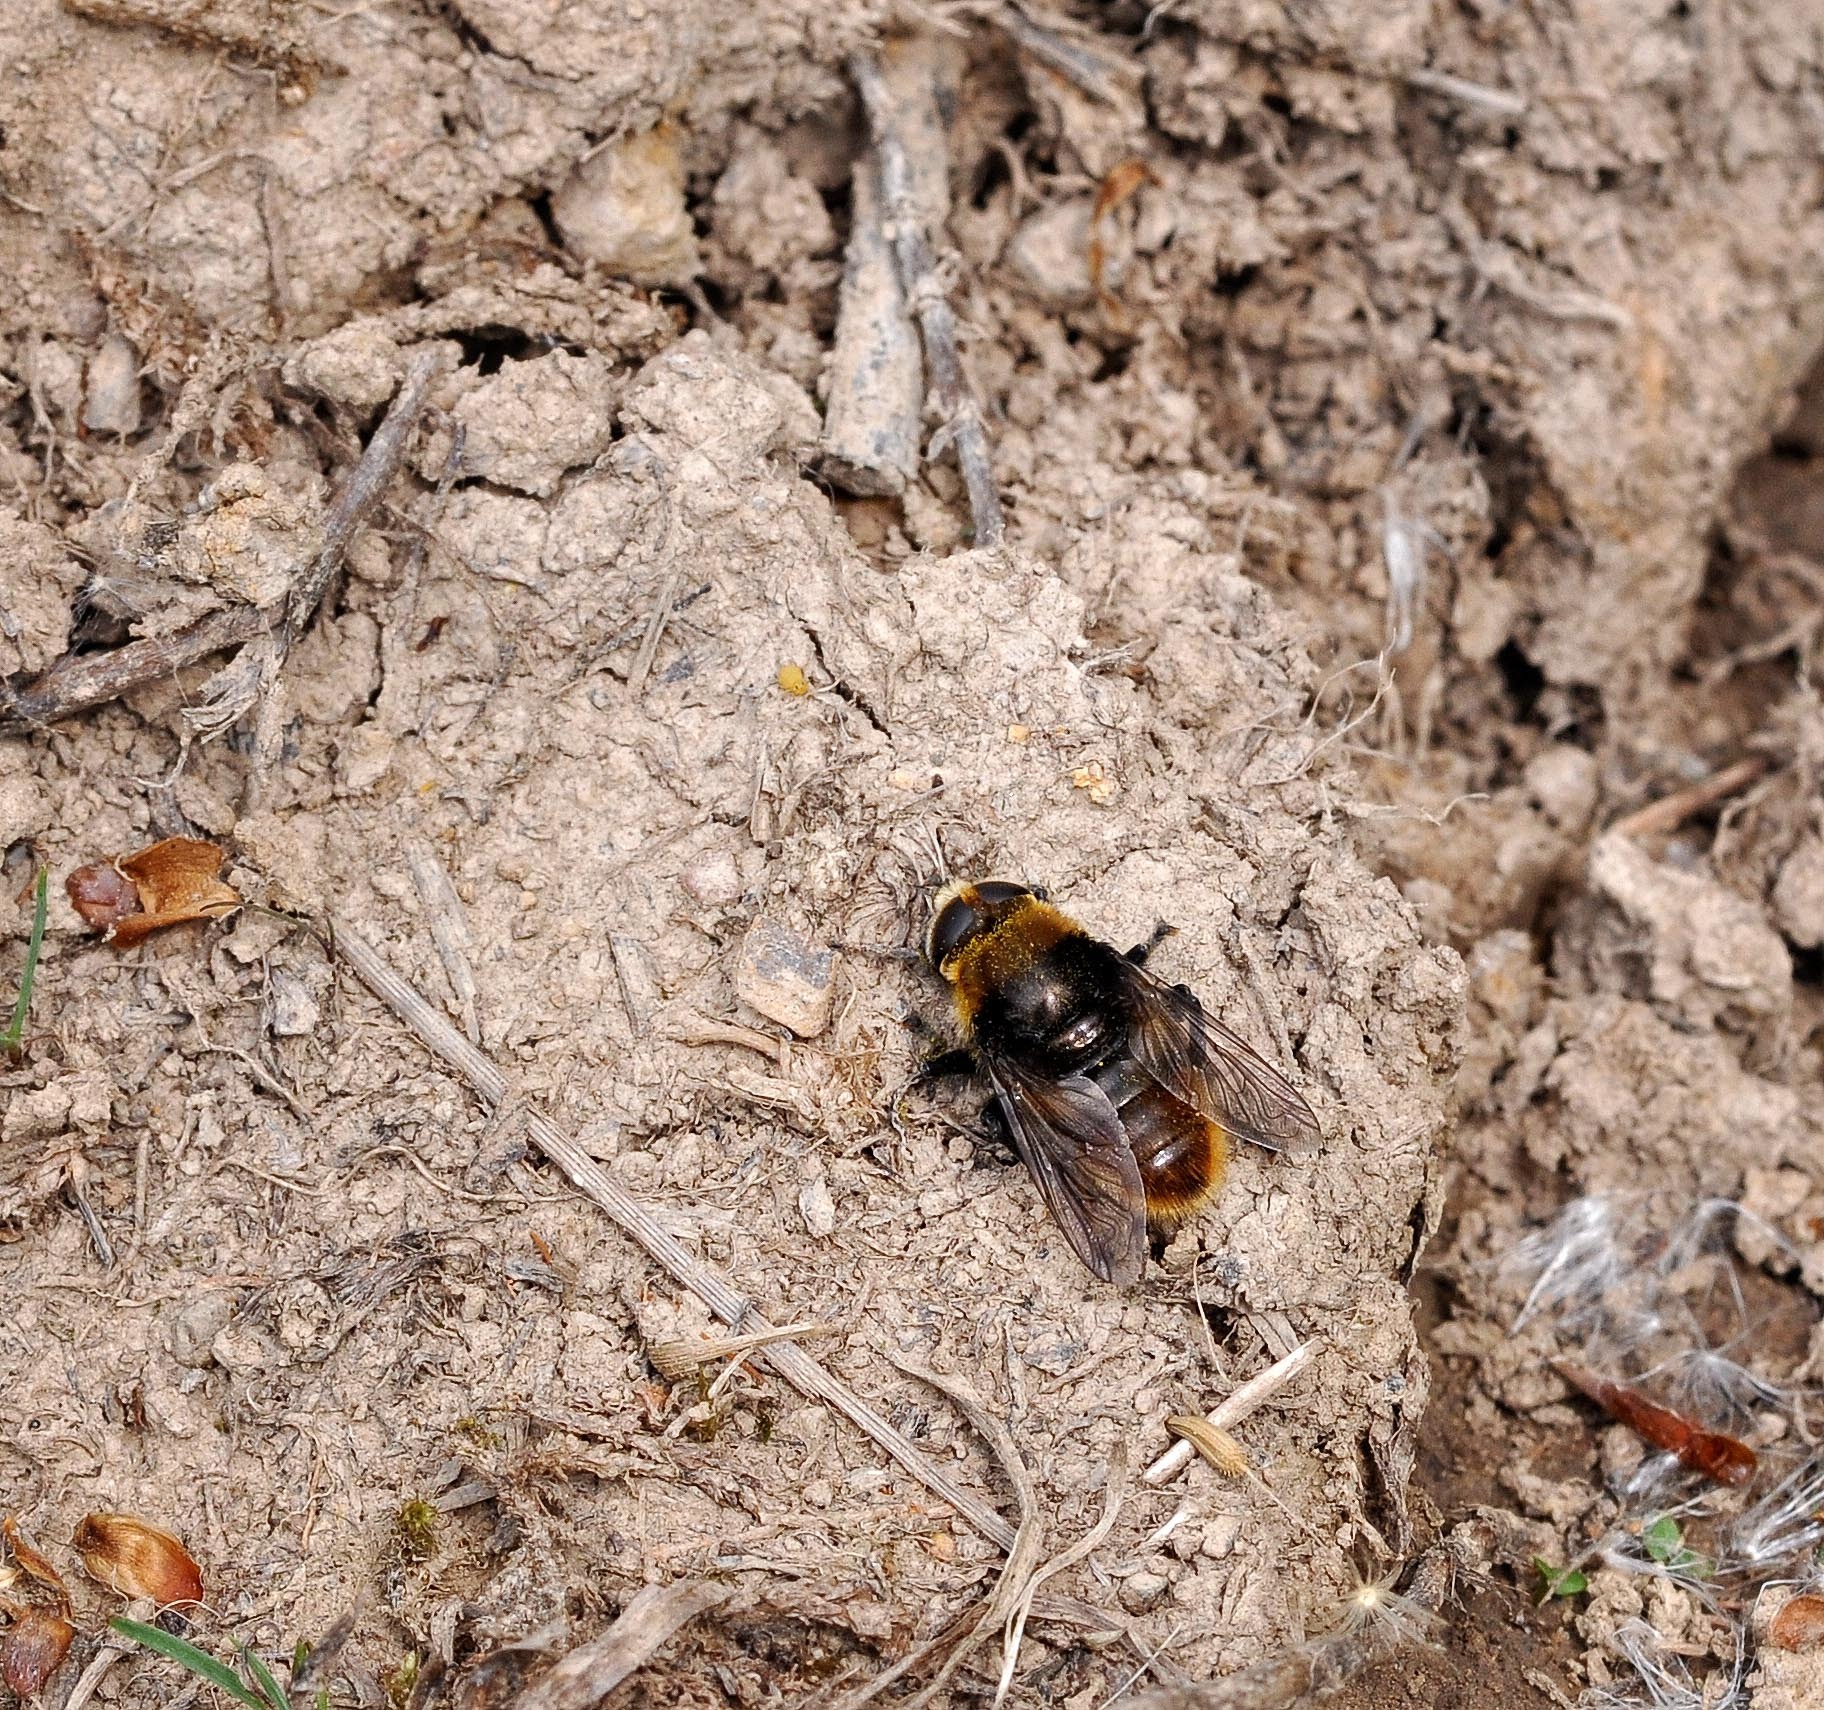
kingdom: Animalia
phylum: Arthropoda
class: Insecta
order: Diptera
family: Syrphidae
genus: Merodon
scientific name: Merodon equestris
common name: Greater bulb-fly
